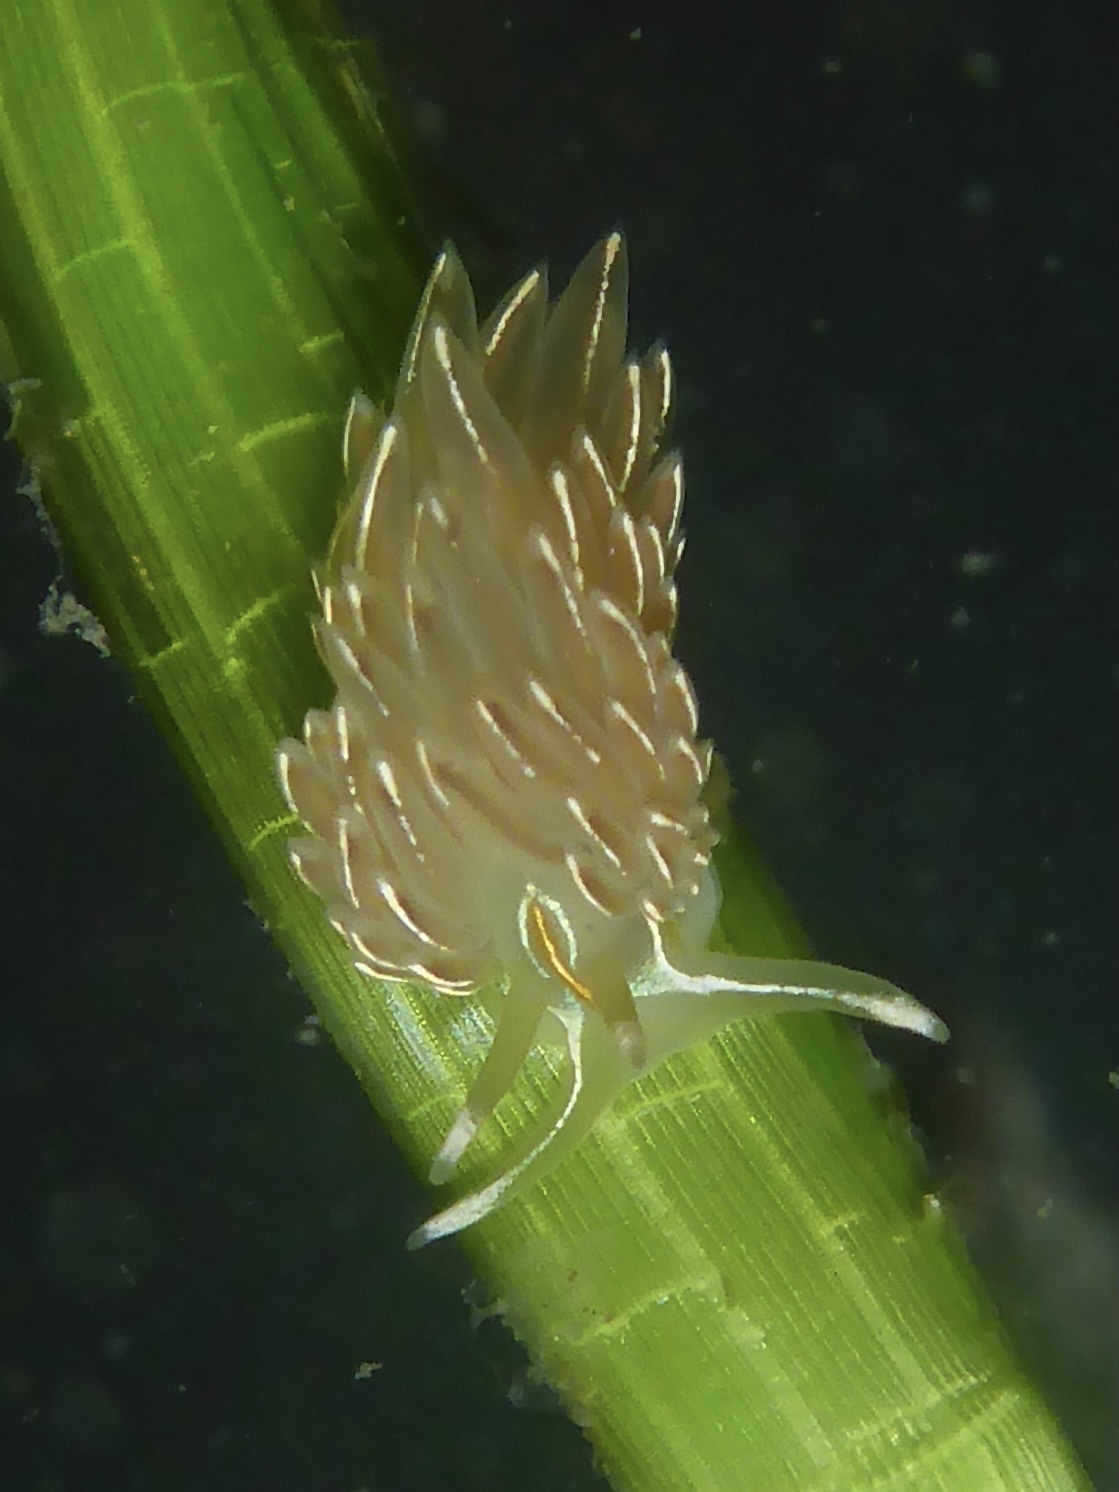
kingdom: Animalia
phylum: Mollusca
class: Gastropoda
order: Nudibranchia
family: Myrrhinidae
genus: Hermissenda
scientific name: Hermissenda crassicornis
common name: Hermissenda
